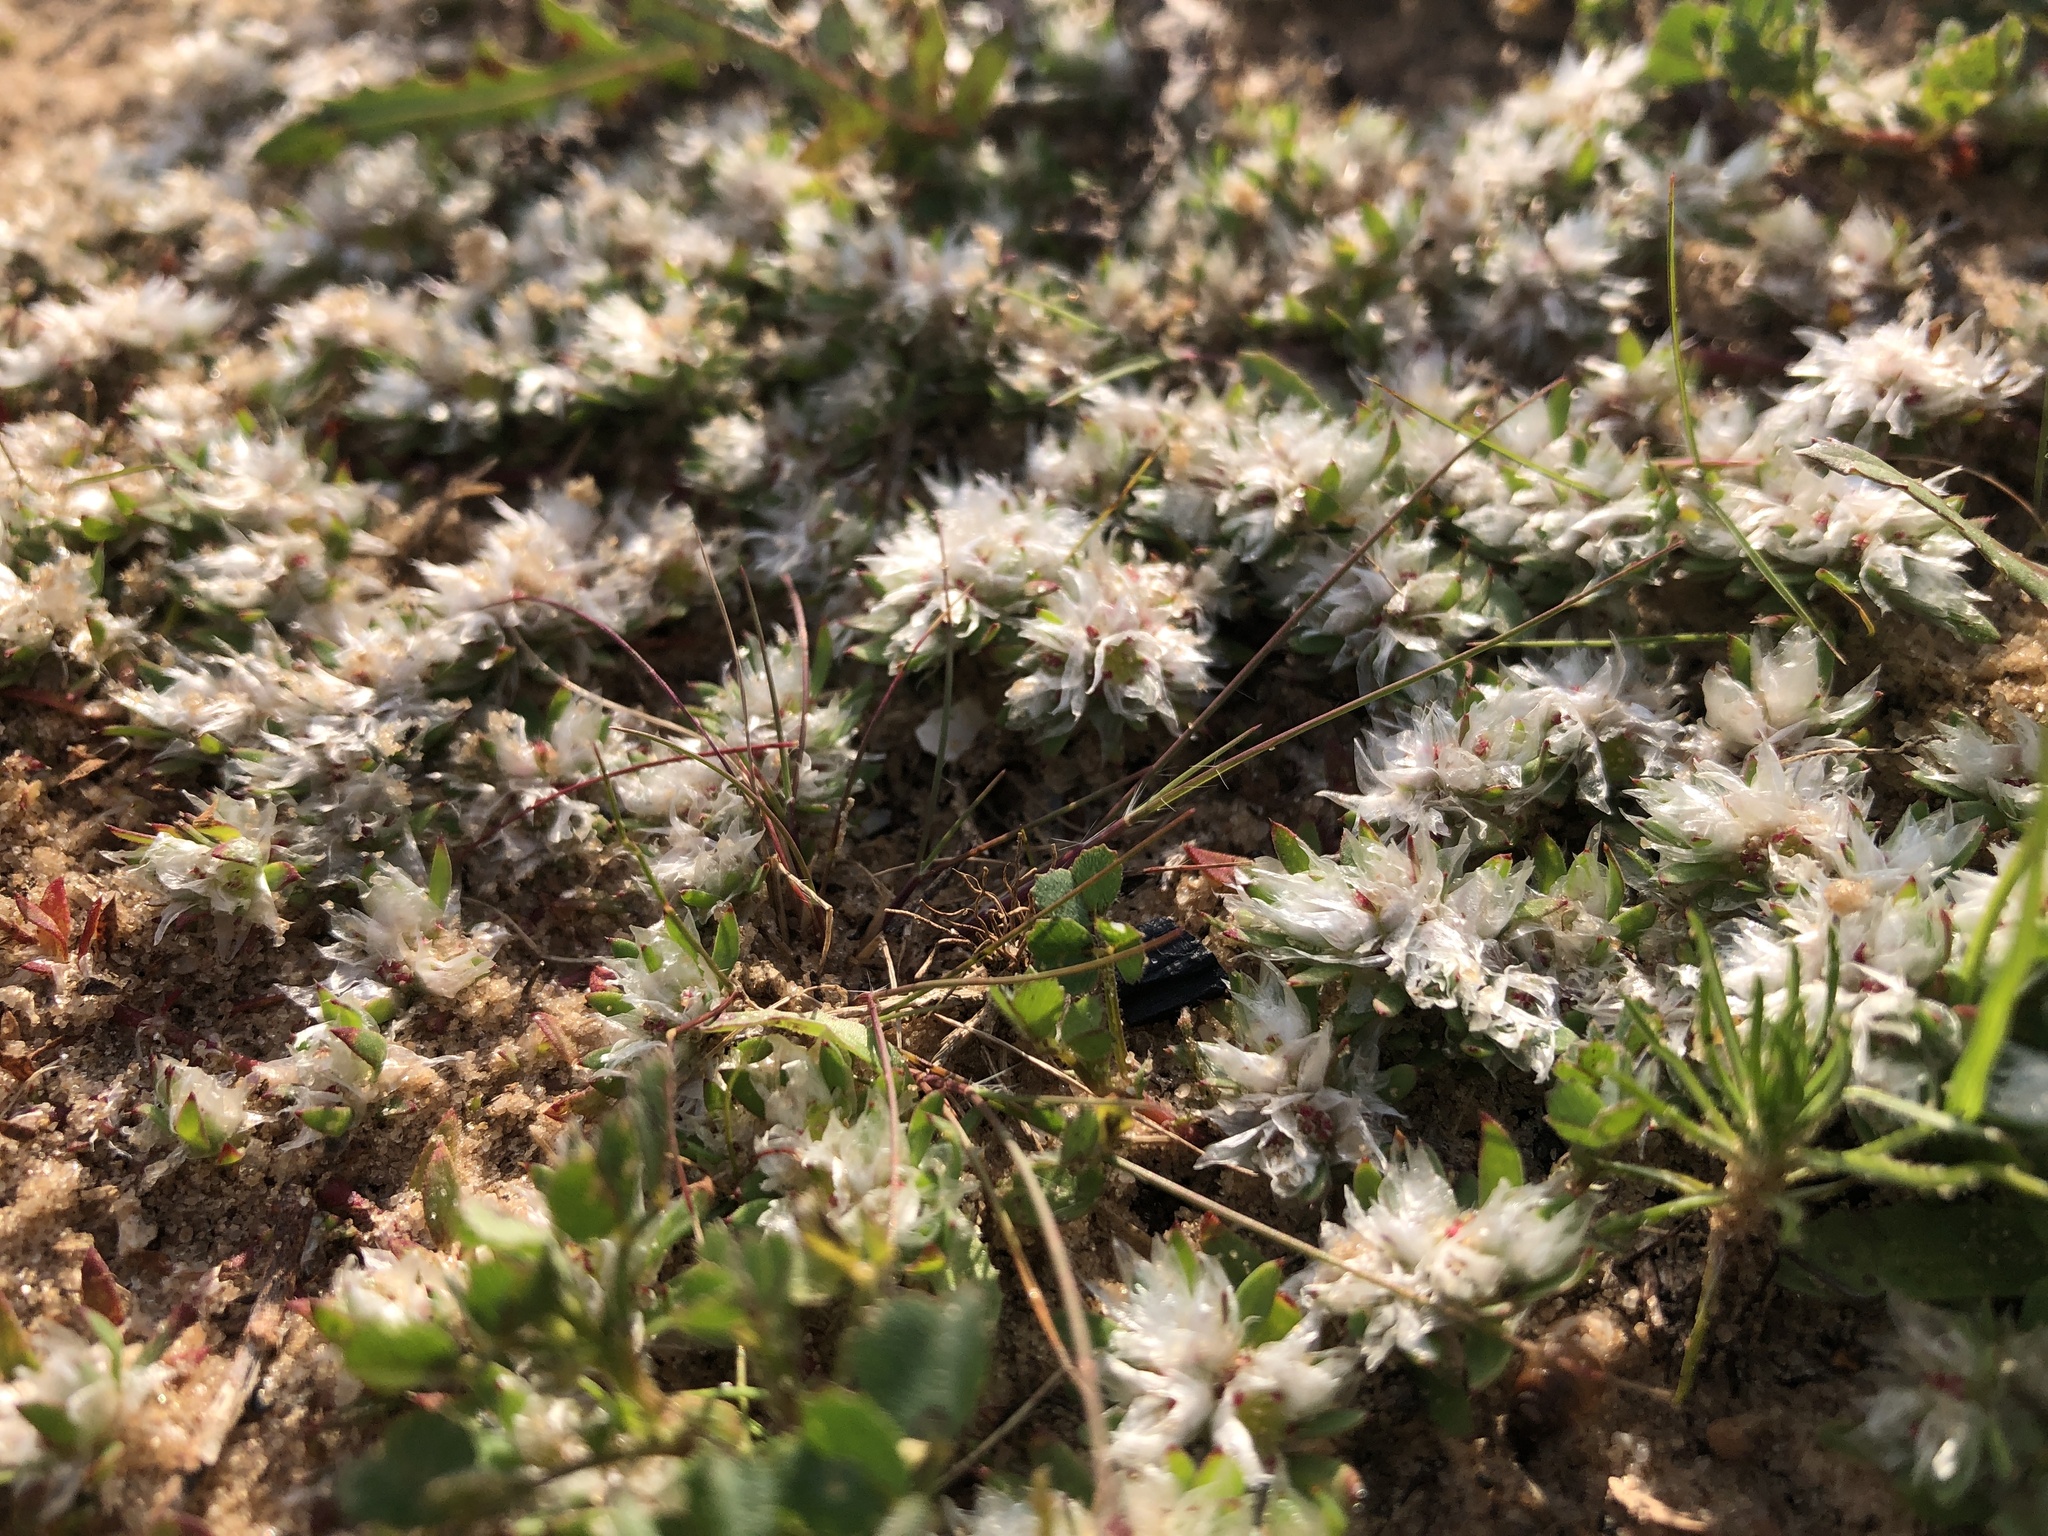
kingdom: Plantae
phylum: Tracheophyta
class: Magnoliopsida
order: Caryophyllales
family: Caryophyllaceae
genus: Paronychia
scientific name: Paronychia argentea
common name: Silver nailroot
